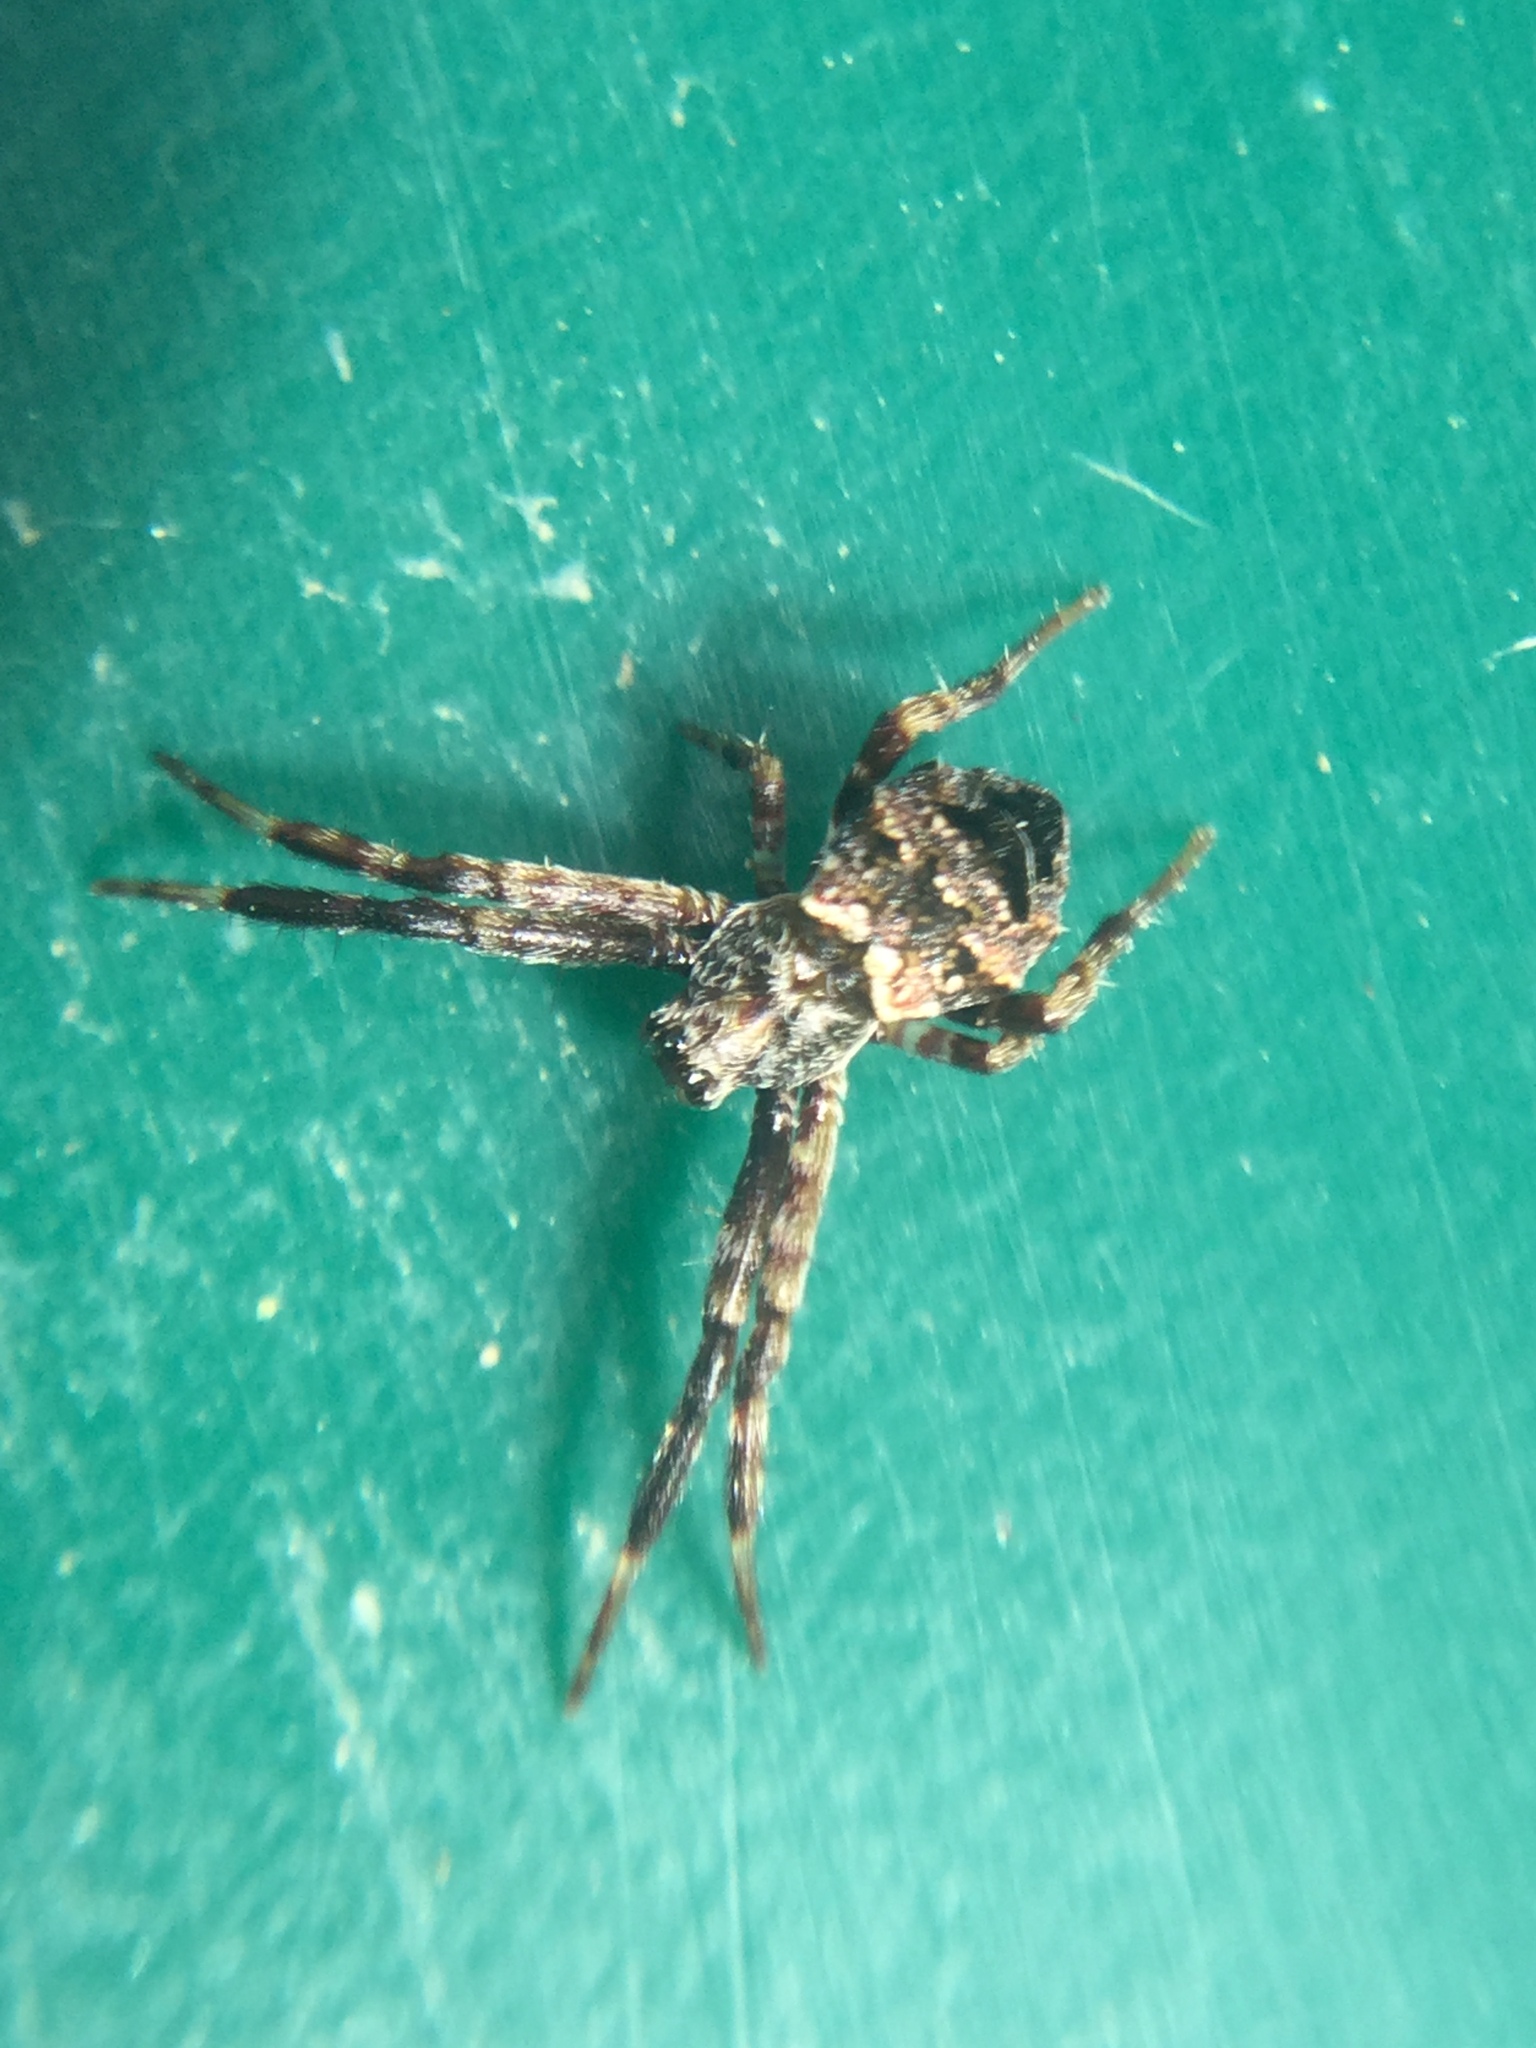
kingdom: Animalia
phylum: Arthropoda
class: Arachnida
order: Araneae
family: Araneidae
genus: Gea
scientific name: Gea heptagon
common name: Orb weavers
